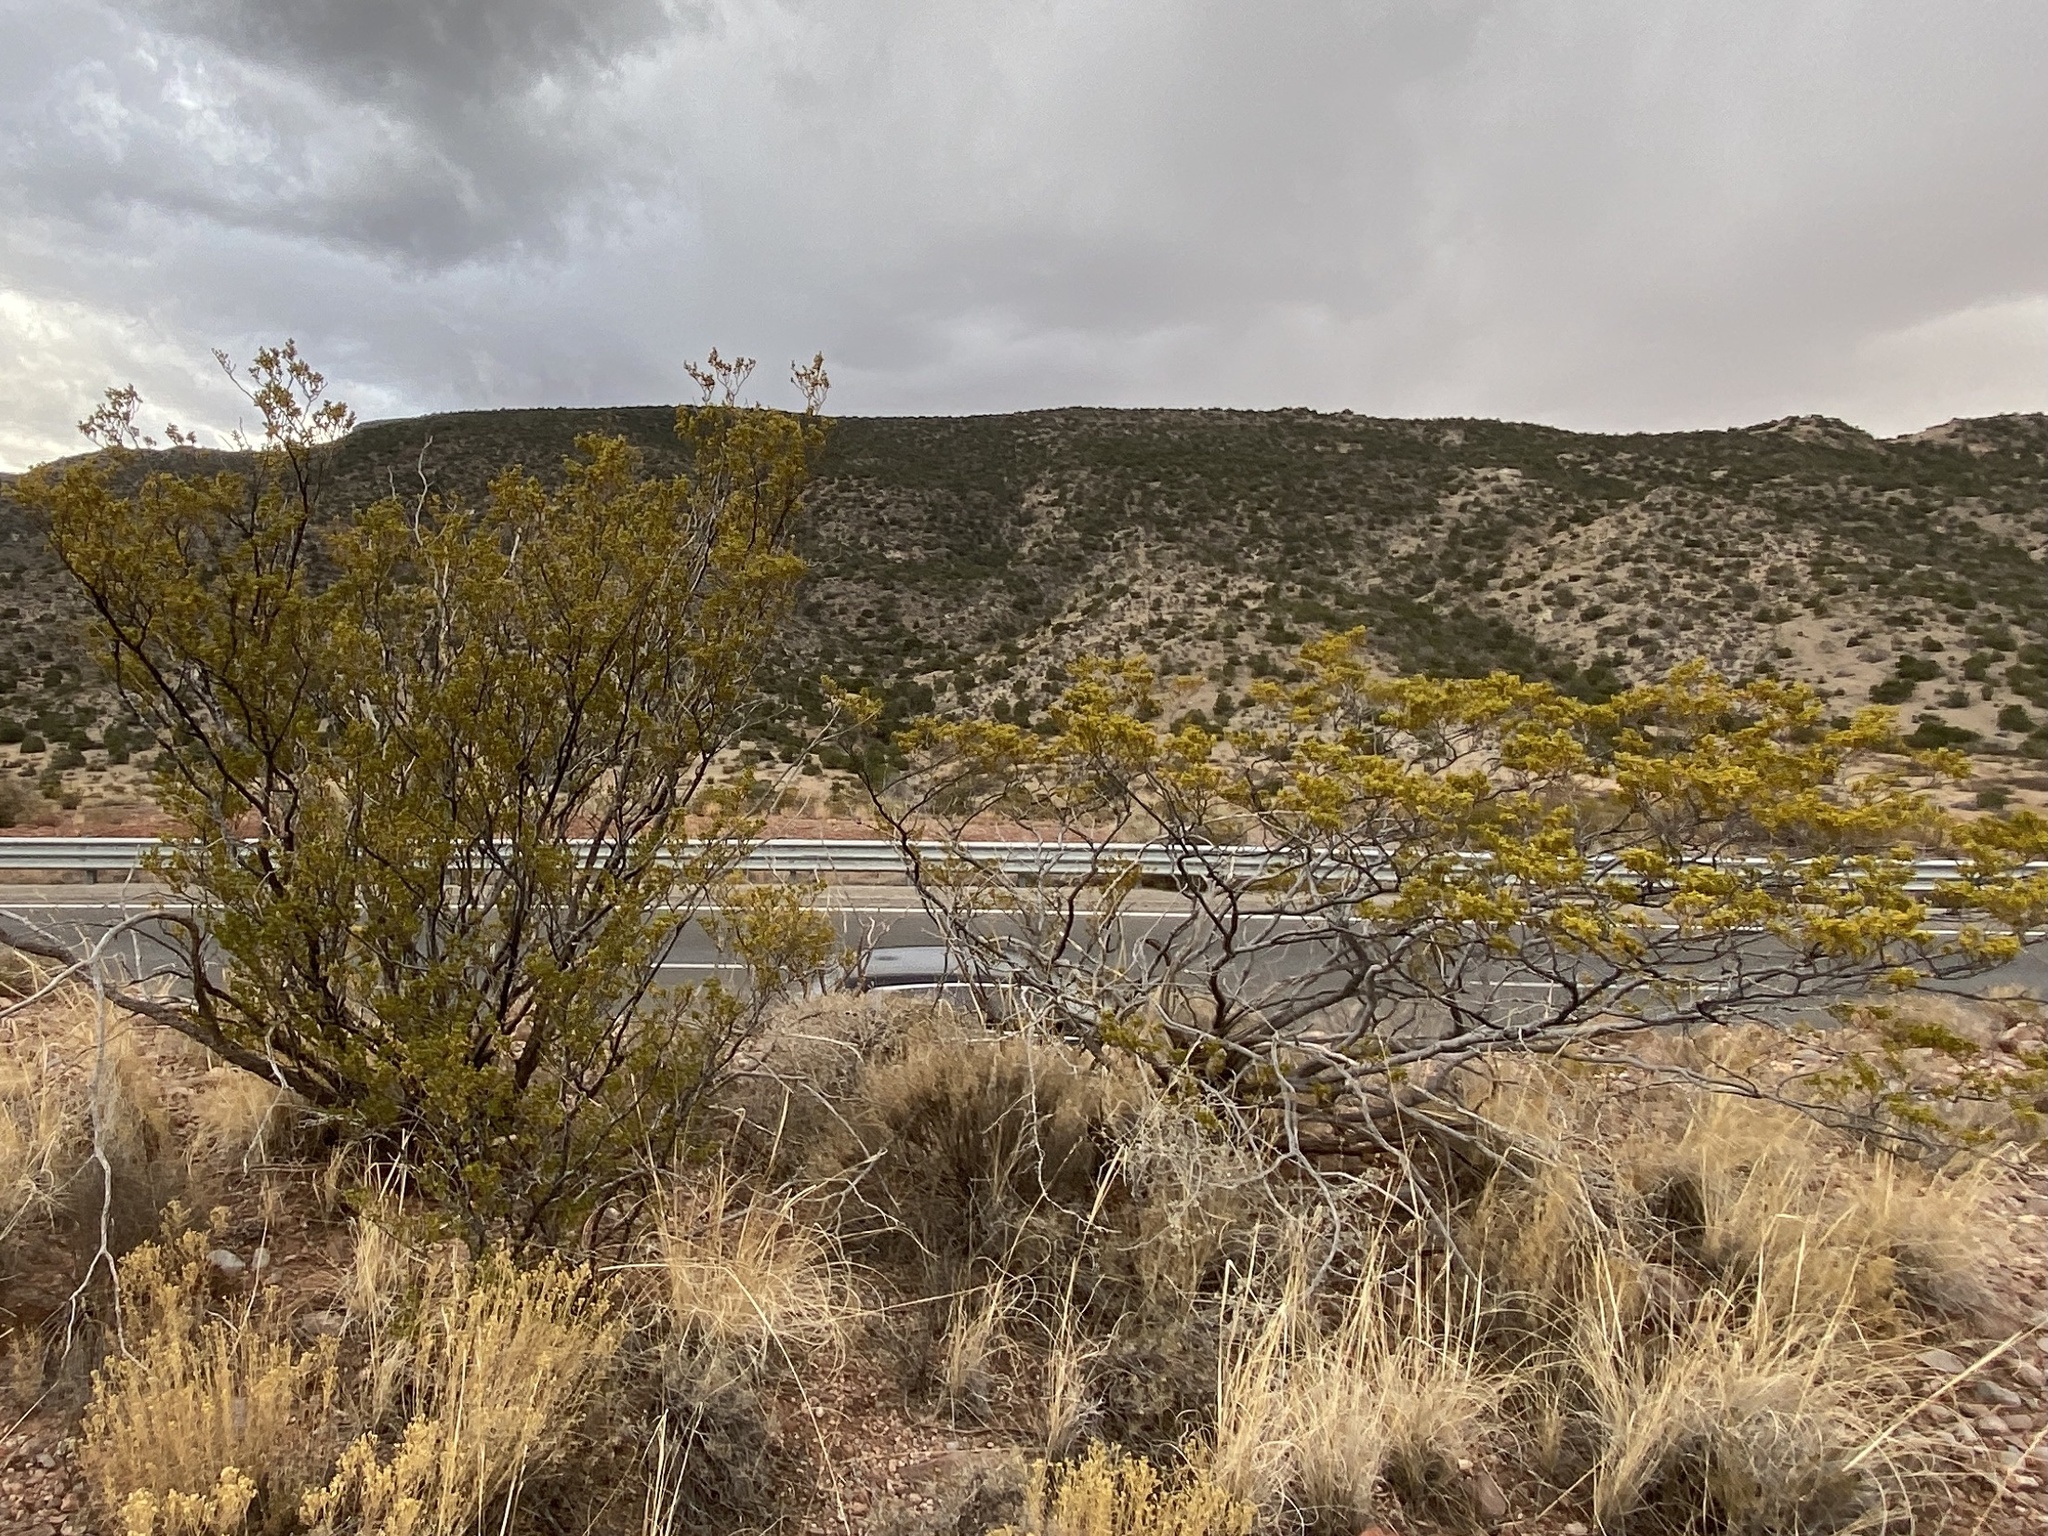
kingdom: Plantae
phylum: Tracheophyta
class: Magnoliopsida
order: Zygophyllales
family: Zygophyllaceae
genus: Larrea
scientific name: Larrea tridentata
